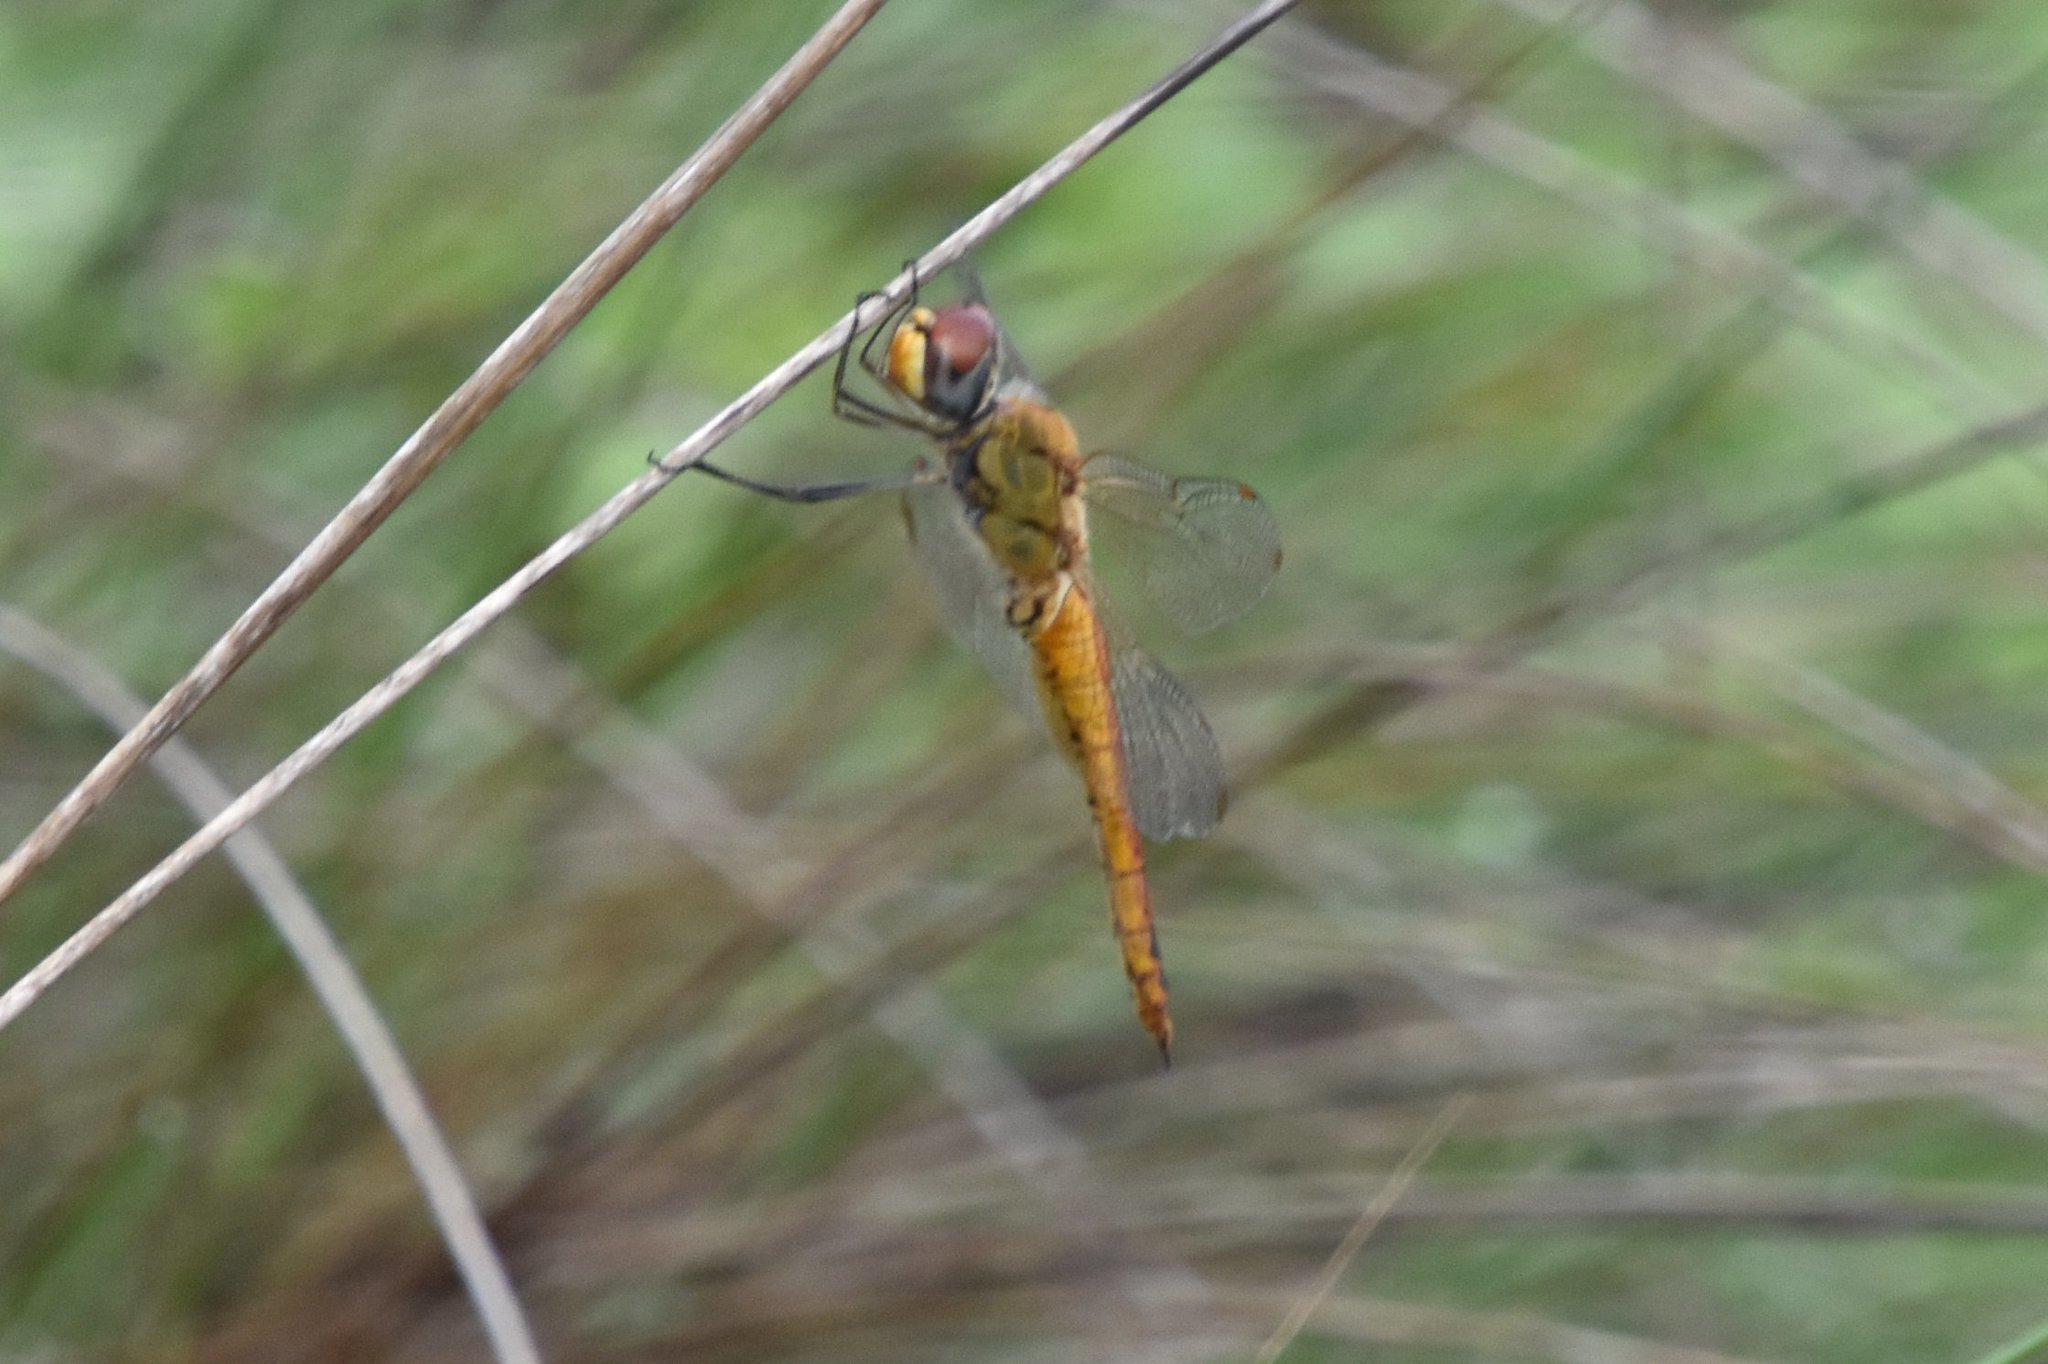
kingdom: Animalia
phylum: Arthropoda
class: Insecta
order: Odonata
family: Libellulidae
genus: Pantala
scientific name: Pantala flavescens
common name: Wandering glider
